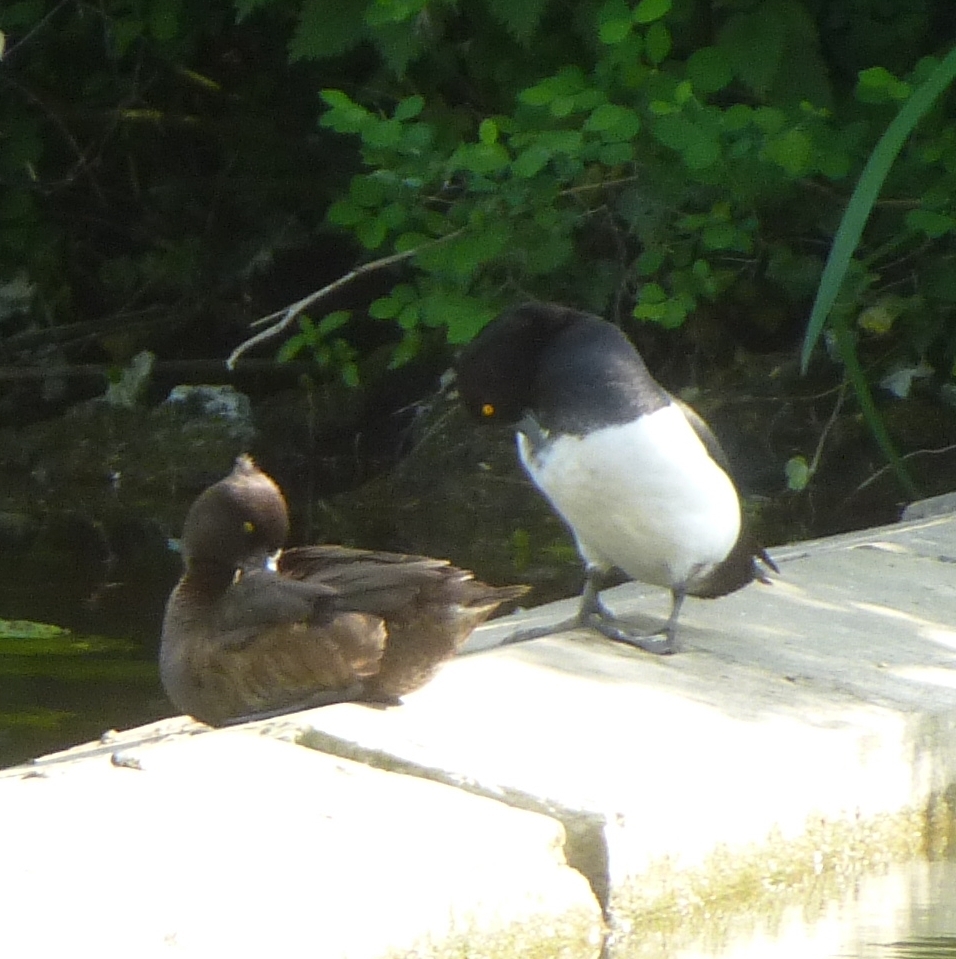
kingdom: Animalia
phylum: Chordata
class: Aves
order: Anseriformes
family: Anatidae
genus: Aythya
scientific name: Aythya fuligula
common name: Tufted duck
